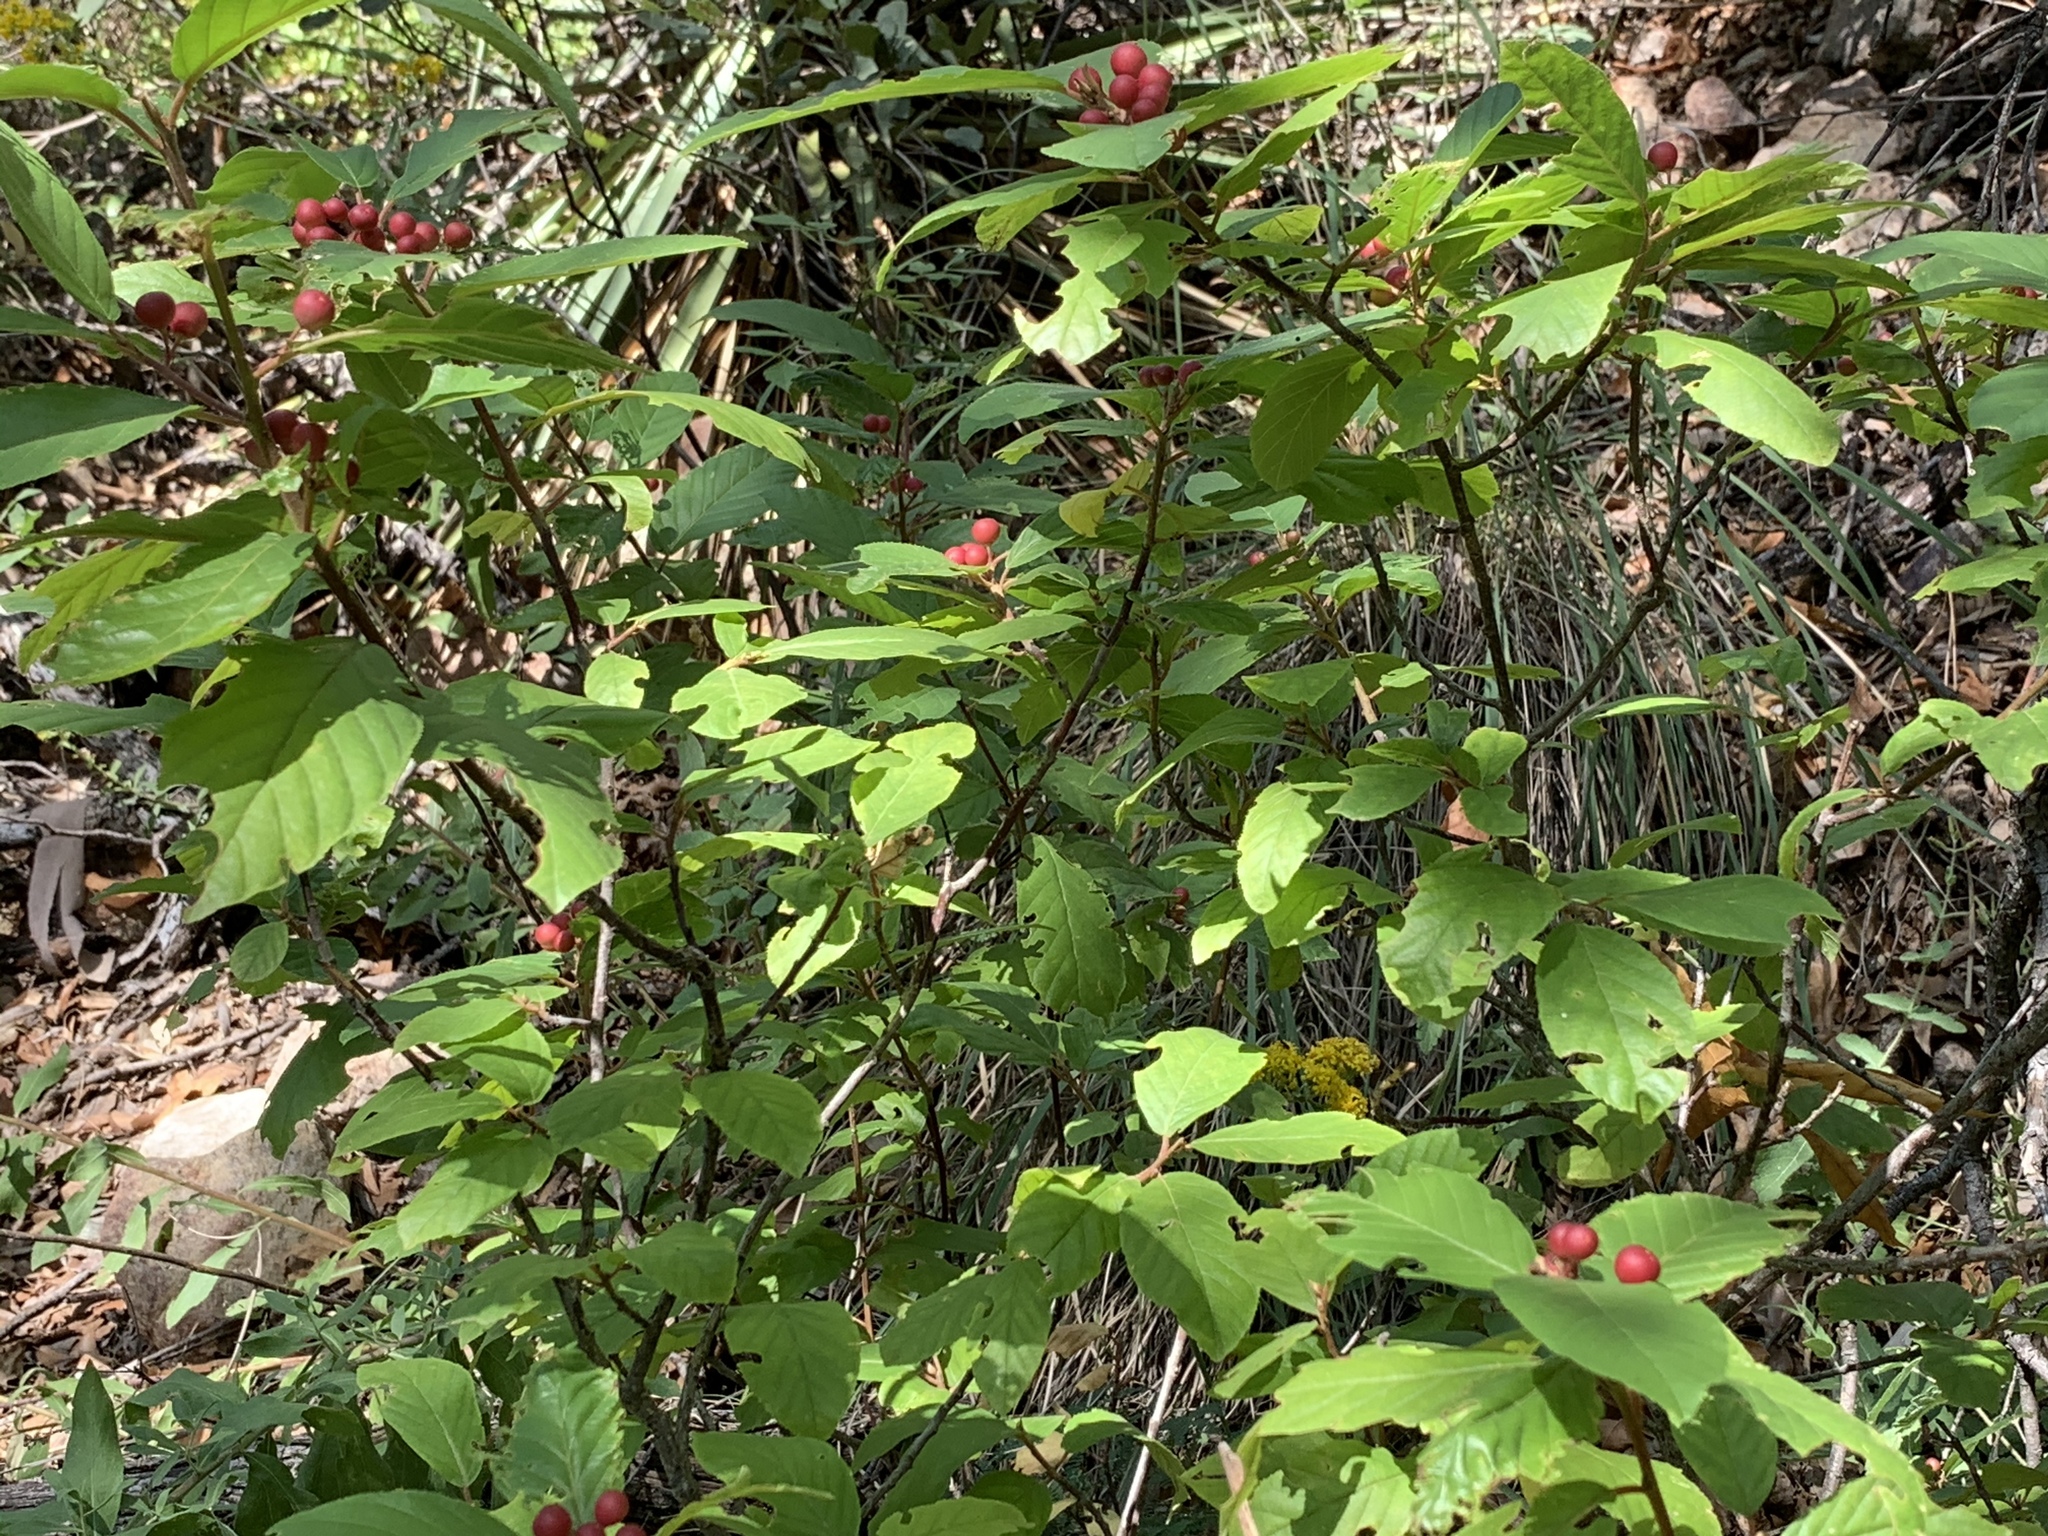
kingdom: Plantae
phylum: Tracheophyta
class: Magnoliopsida
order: Rosales
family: Rhamnaceae
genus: Frangula
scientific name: Frangula betulifolia
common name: Birch-leaf buckthorn
